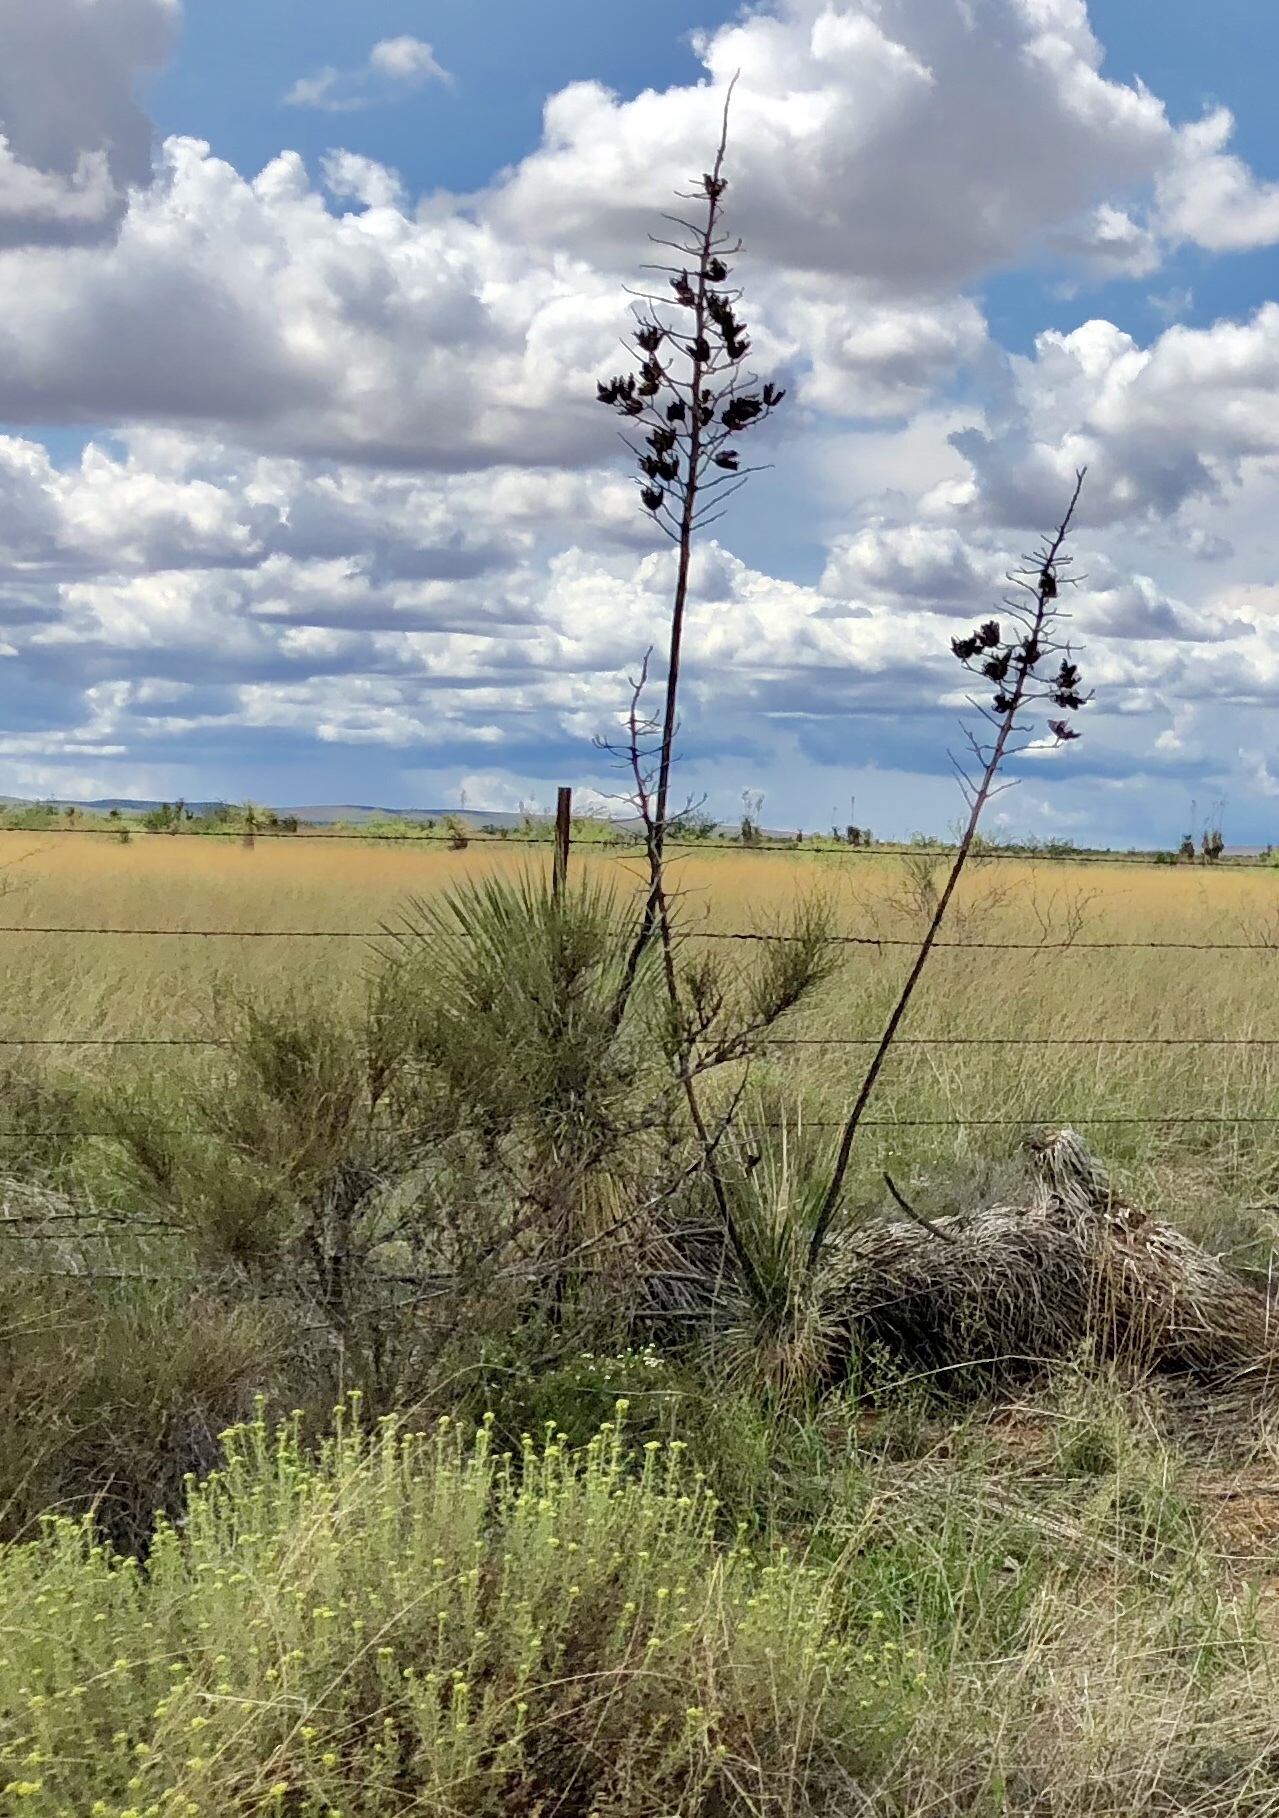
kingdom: Plantae
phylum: Tracheophyta
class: Liliopsida
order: Asparagales
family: Asparagaceae
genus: Yucca
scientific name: Yucca elata
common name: Palmella
